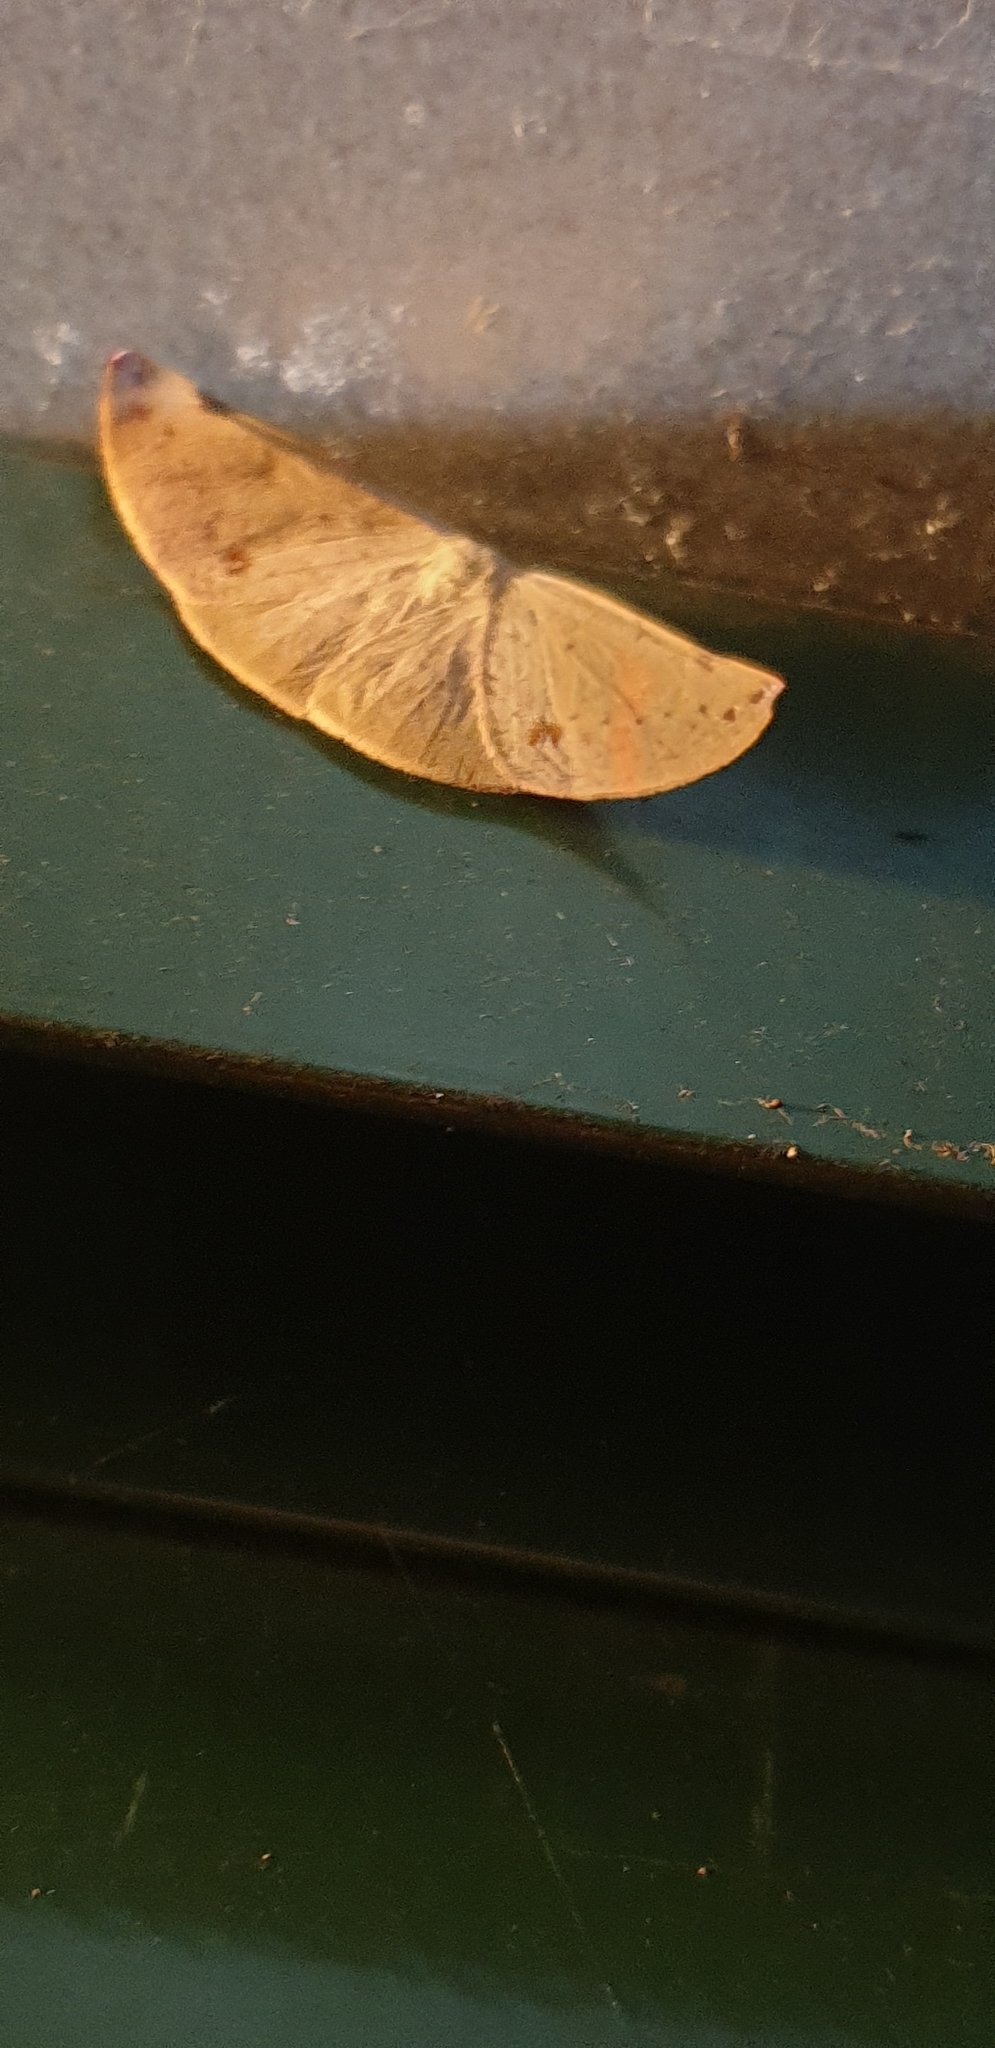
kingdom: Animalia
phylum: Arthropoda
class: Insecta
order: Lepidoptera
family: Geometridae
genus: Onycodes
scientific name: Onycodes rubra
